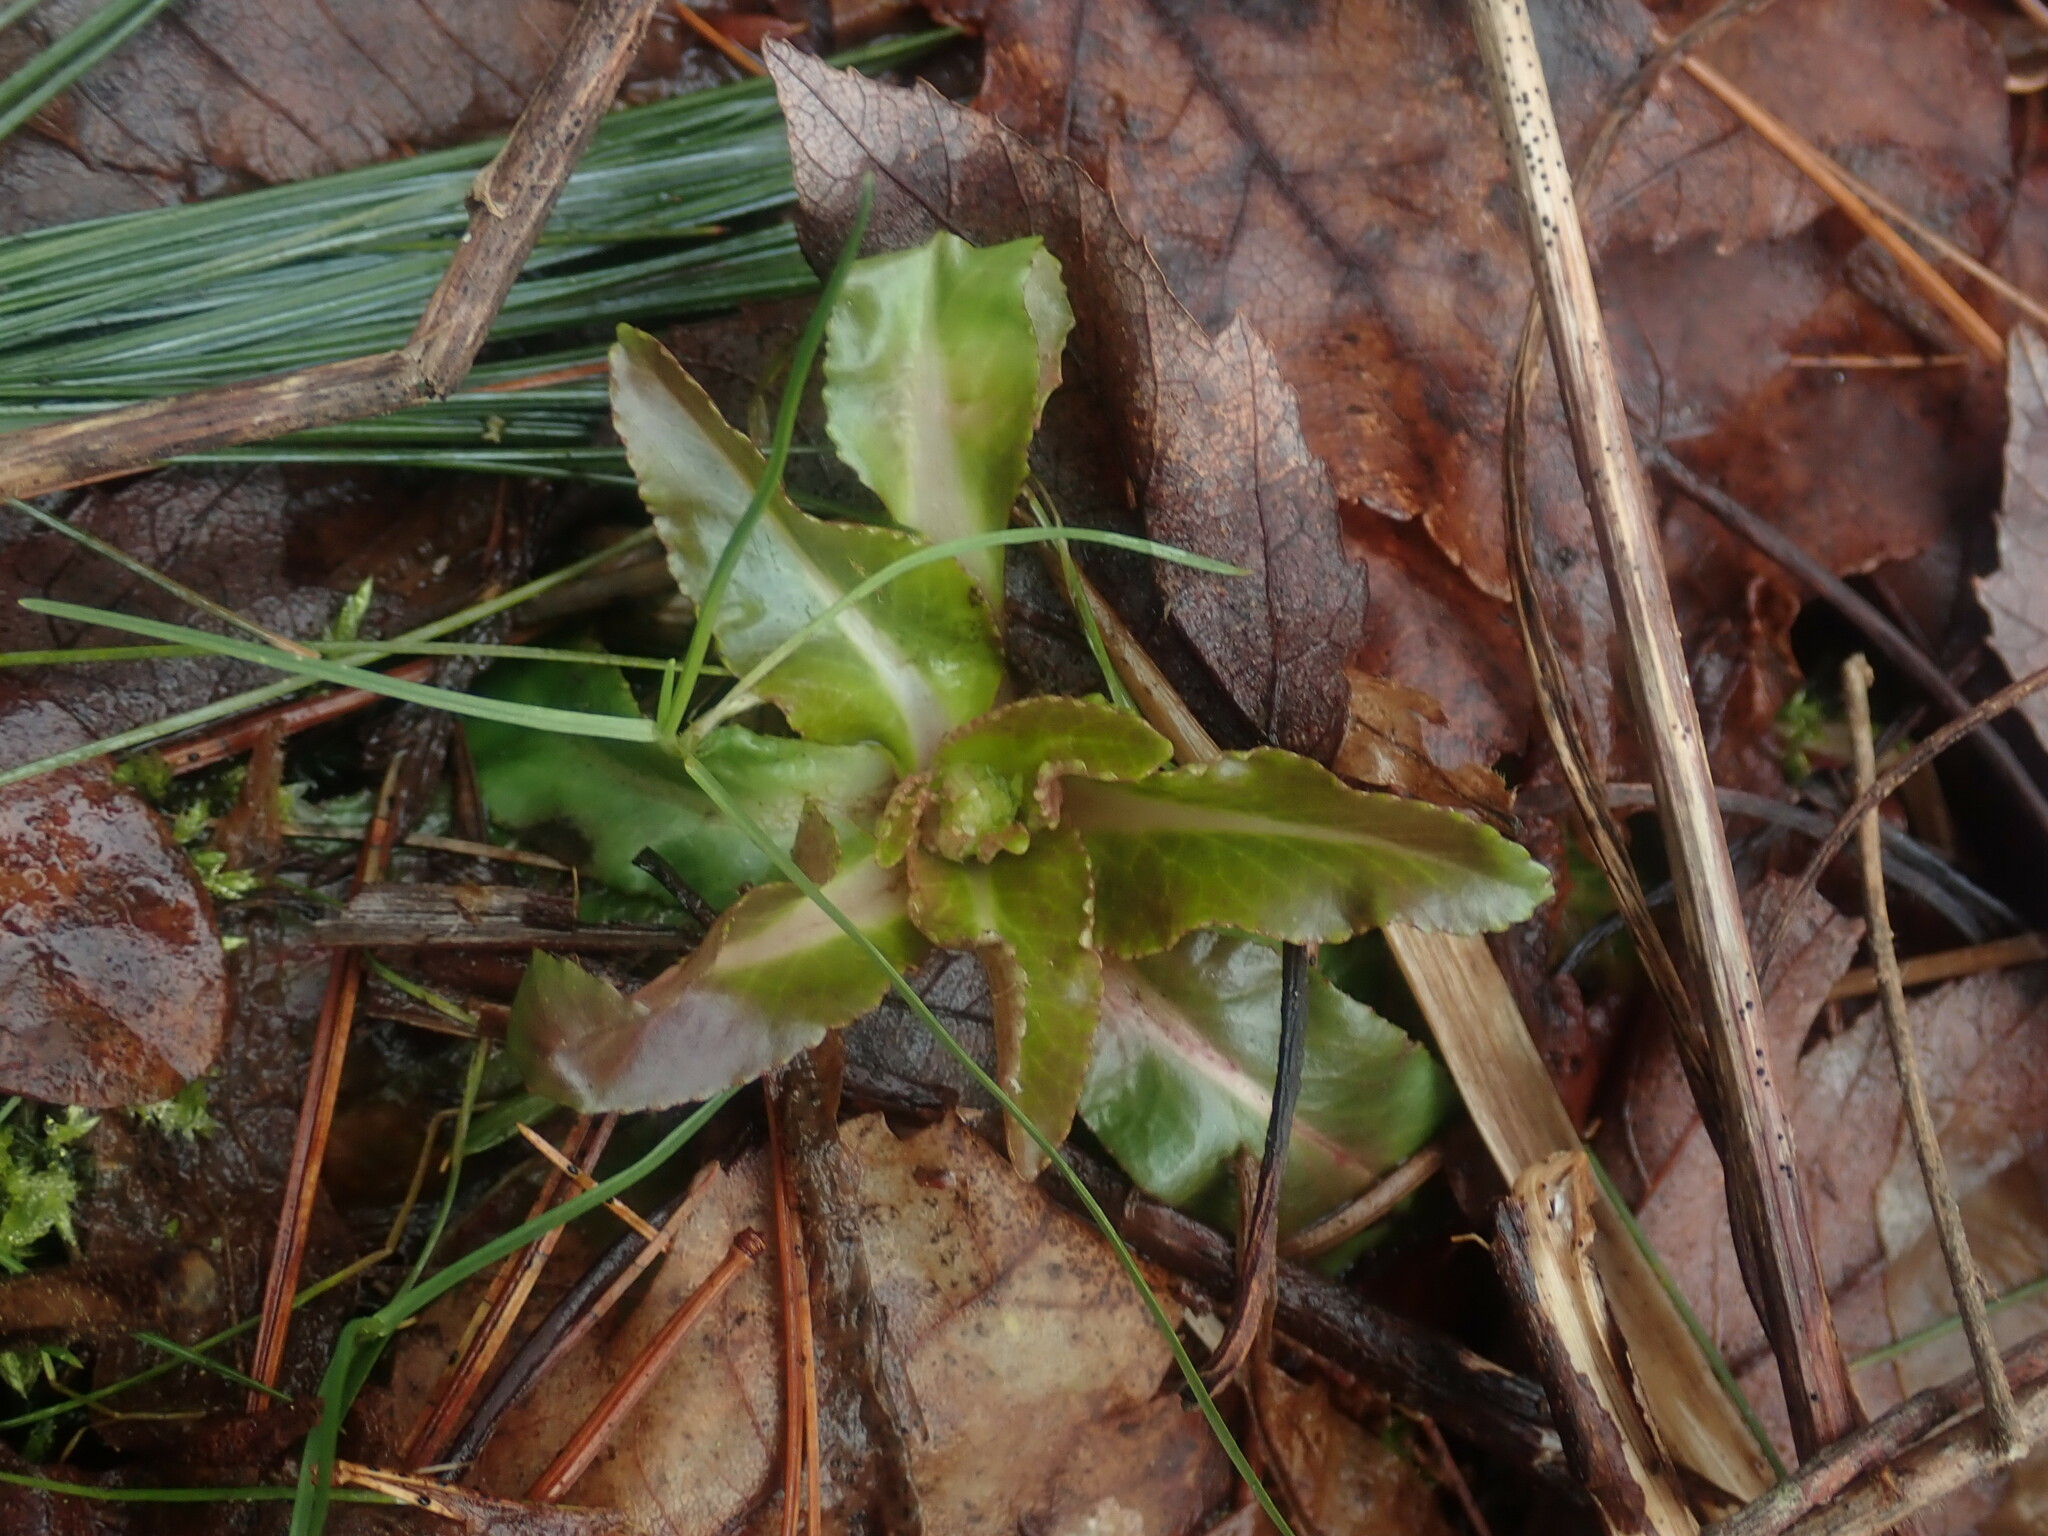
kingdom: Plantae
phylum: Tracheophyta
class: Magnoliopsida
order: Saxifragales
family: Saxifragaceae
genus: Micranthes
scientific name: Micranthes pensylvanica
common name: Marsh saxifrage
